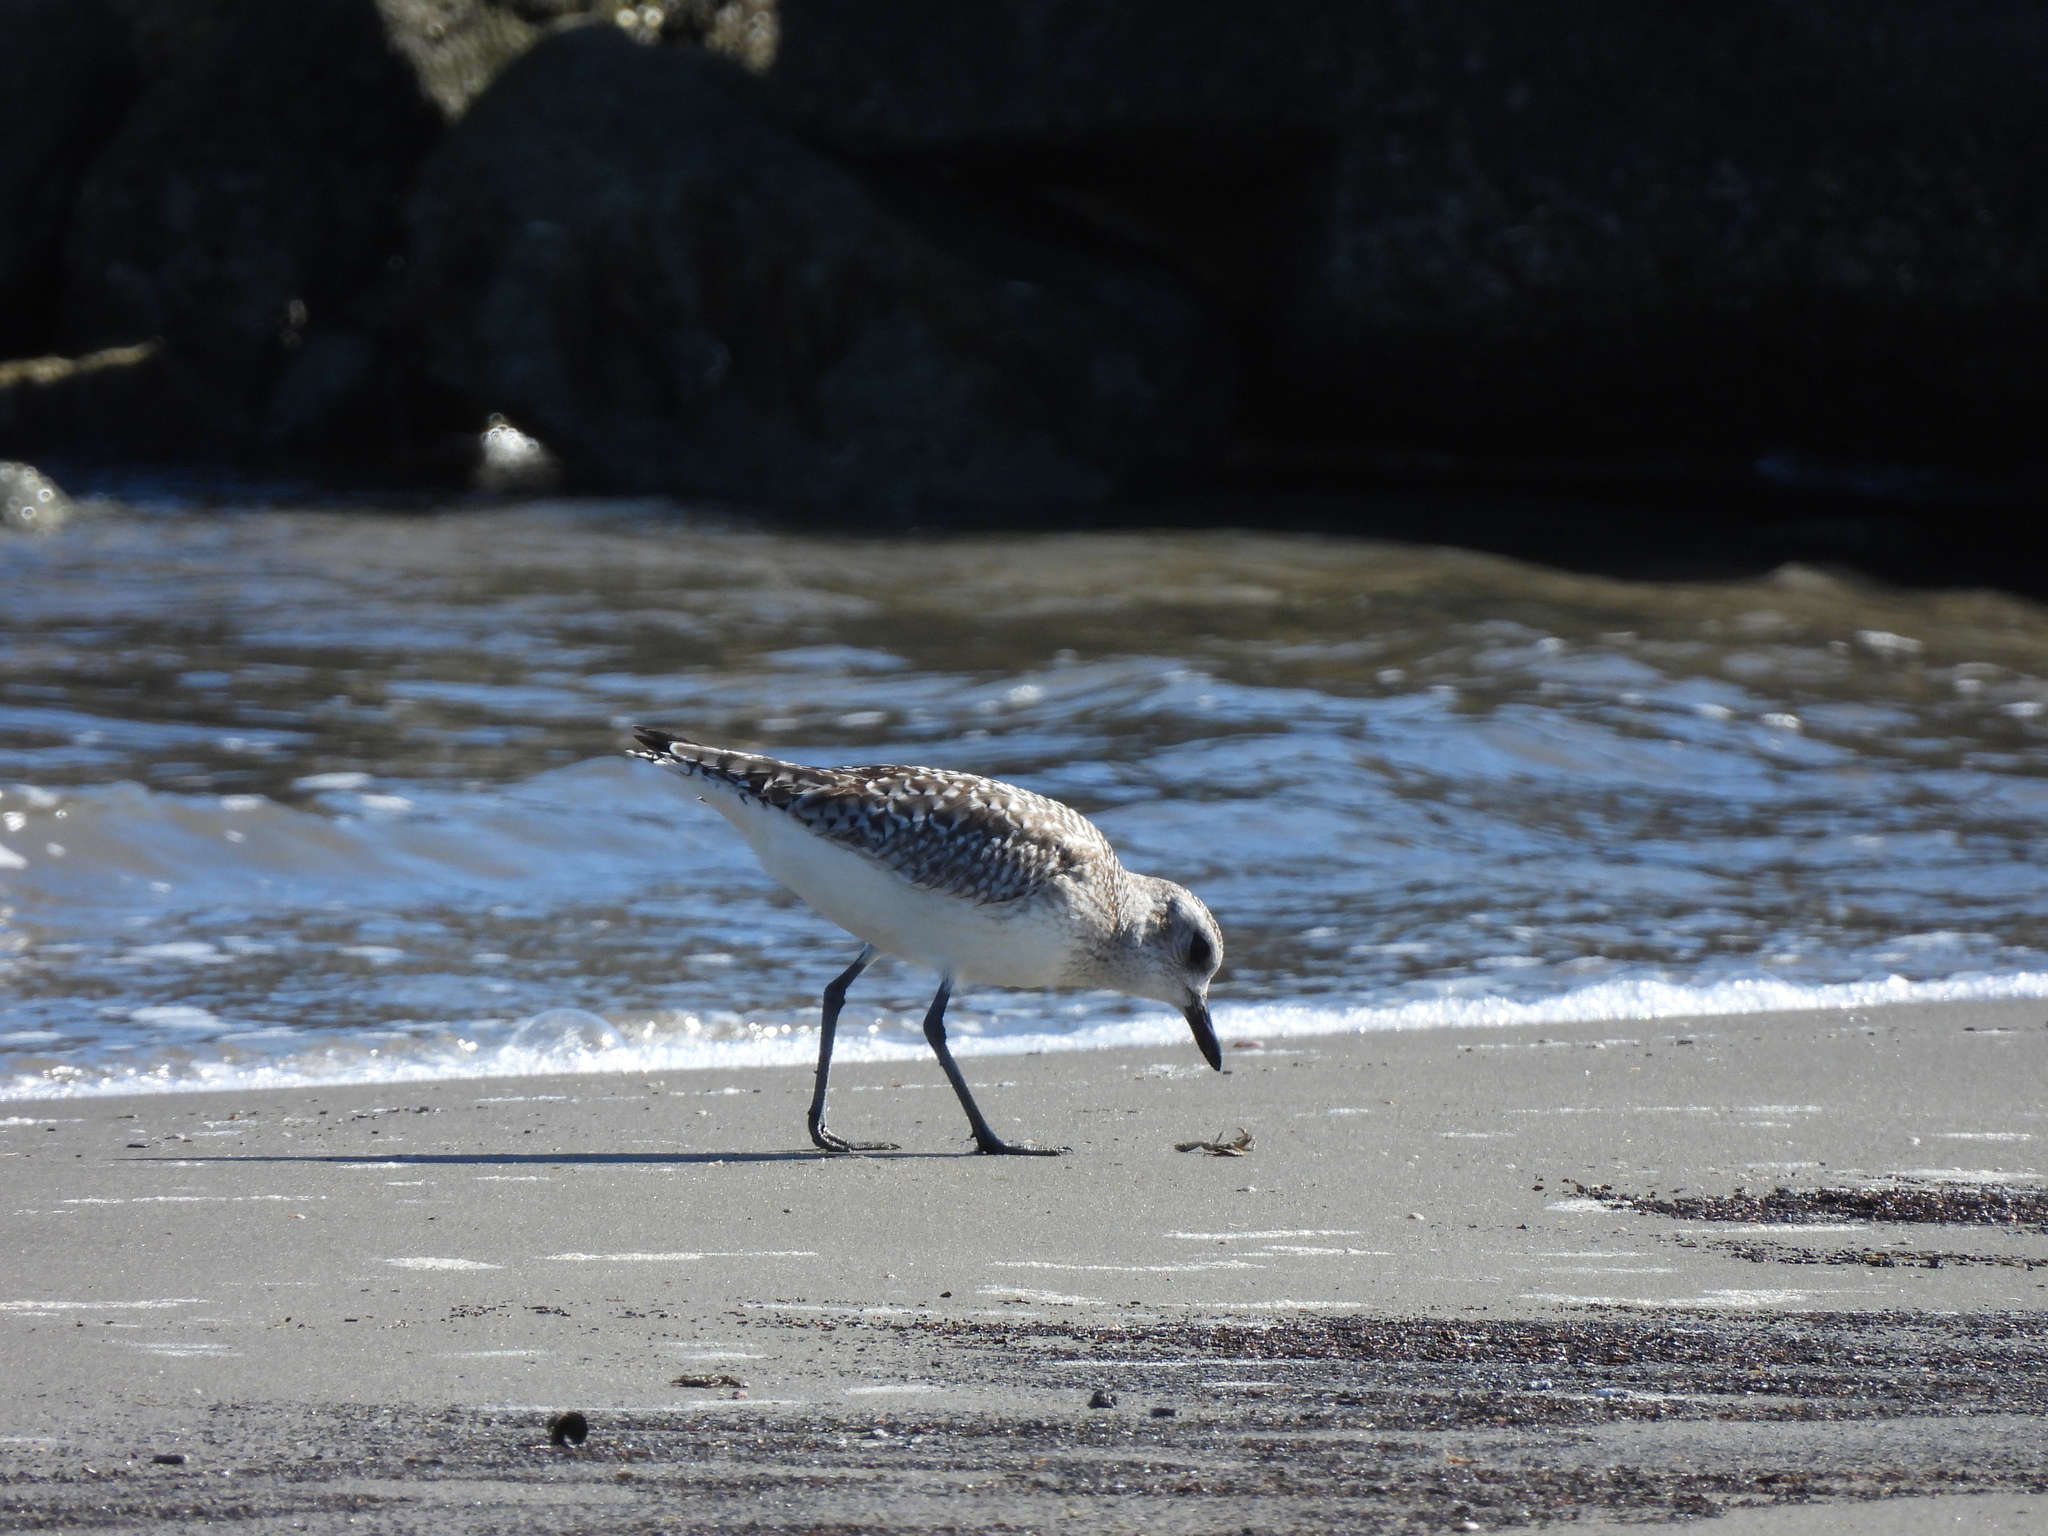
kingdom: Animalia
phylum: Chordata
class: Aves
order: Charadriiformes
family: Charadriidae
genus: Pluvialis
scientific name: Pluvialis squatarola
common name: Grey plover
